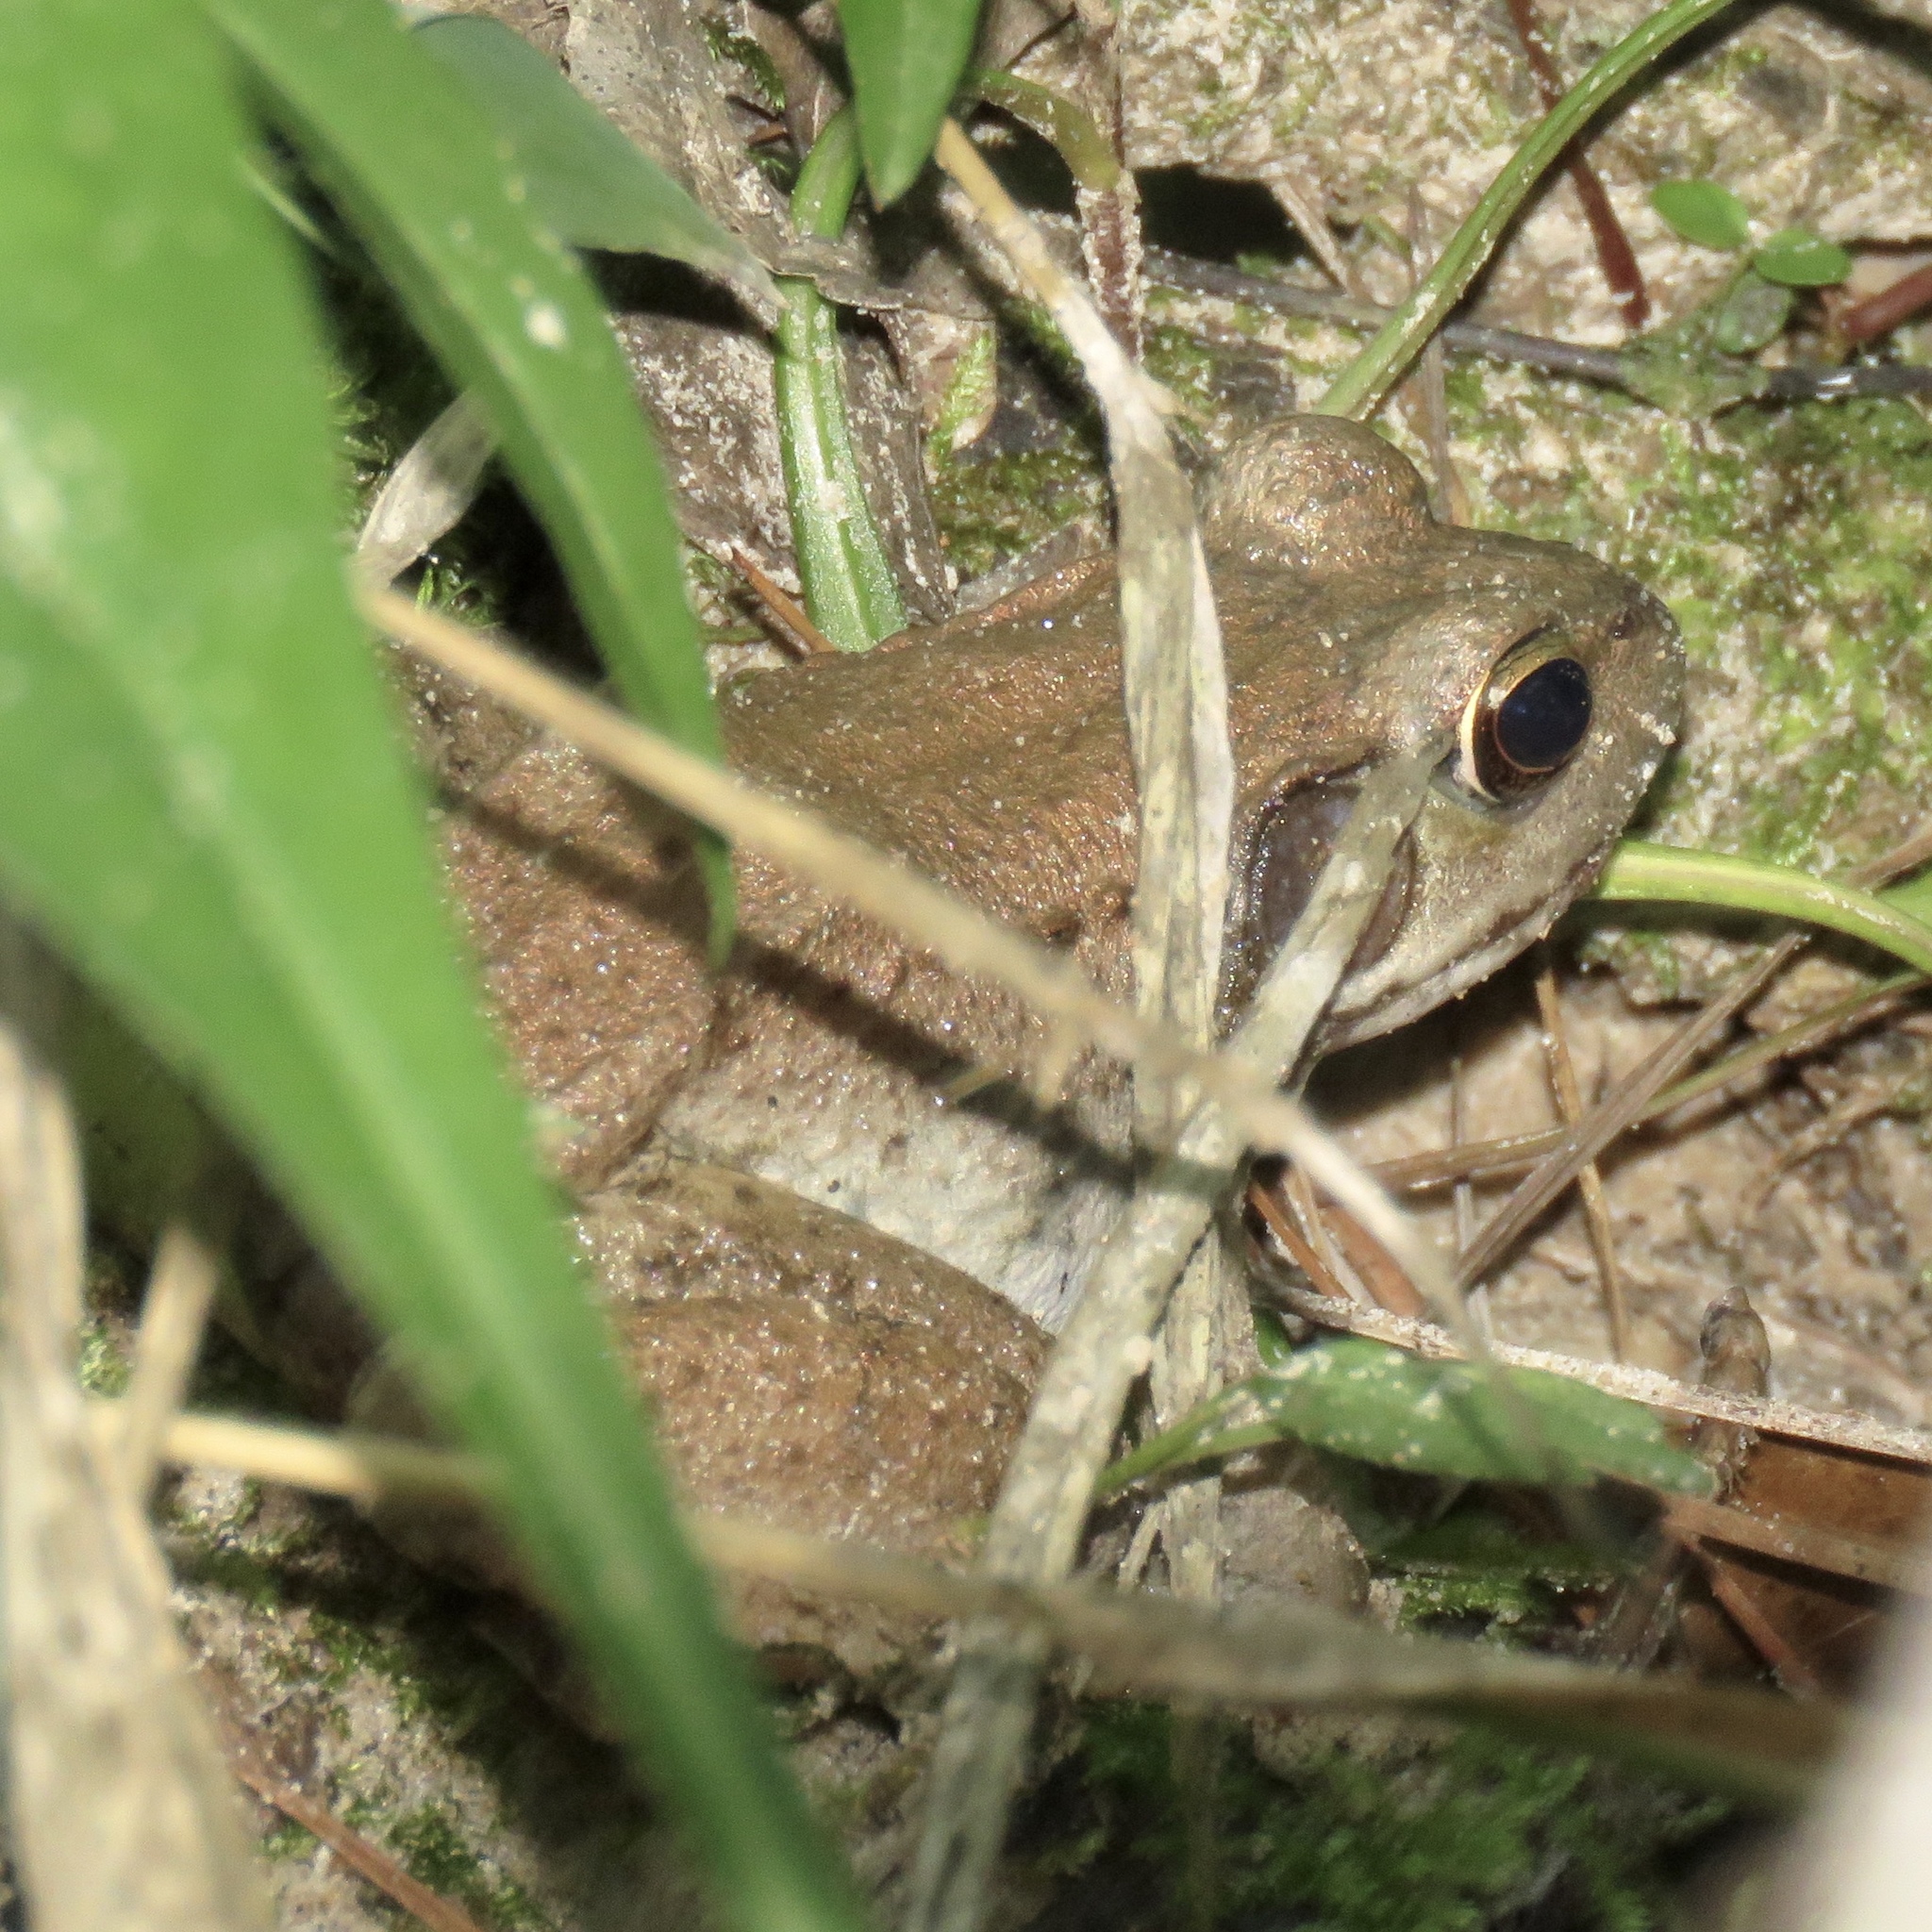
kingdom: Animalia
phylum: Chordata
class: Amphibia
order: Anura
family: Ranidae
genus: Lithobates
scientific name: Lithobates clamitans
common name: Green frog
